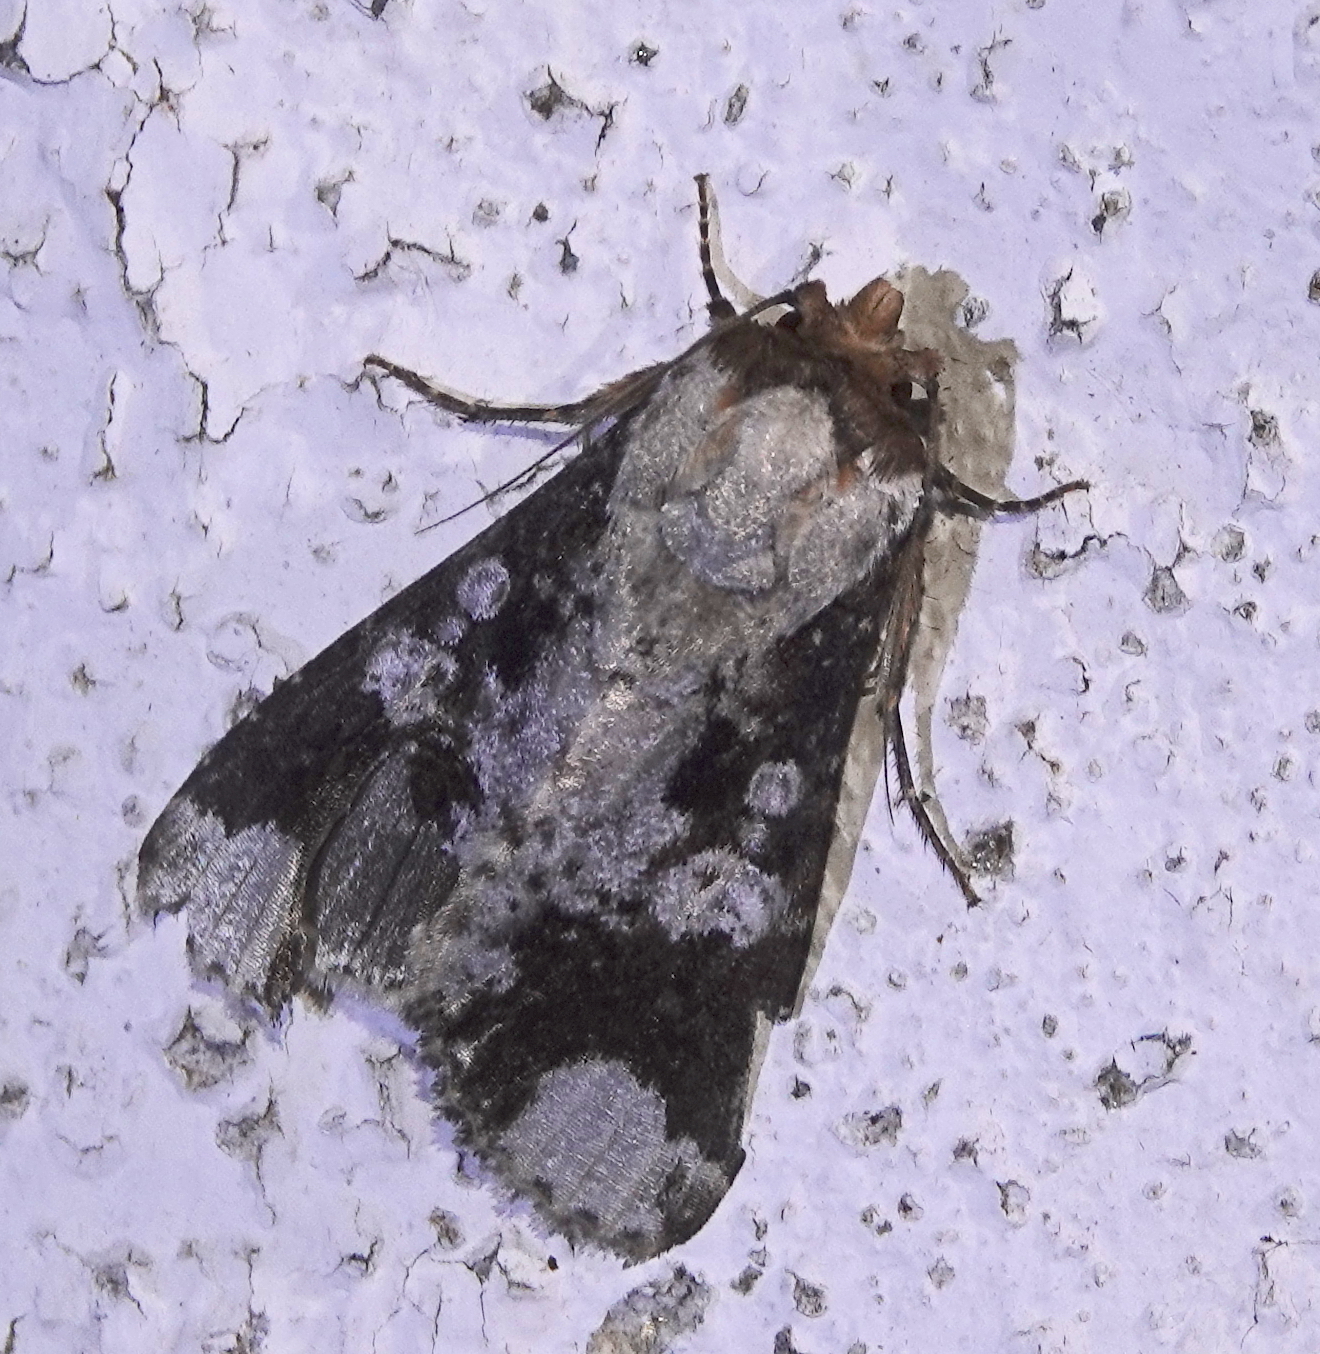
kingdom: Animalia
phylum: Arthropoda
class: Insecta
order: Lepidoptera
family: Noctuidae
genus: Condica
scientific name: Condica imitata
